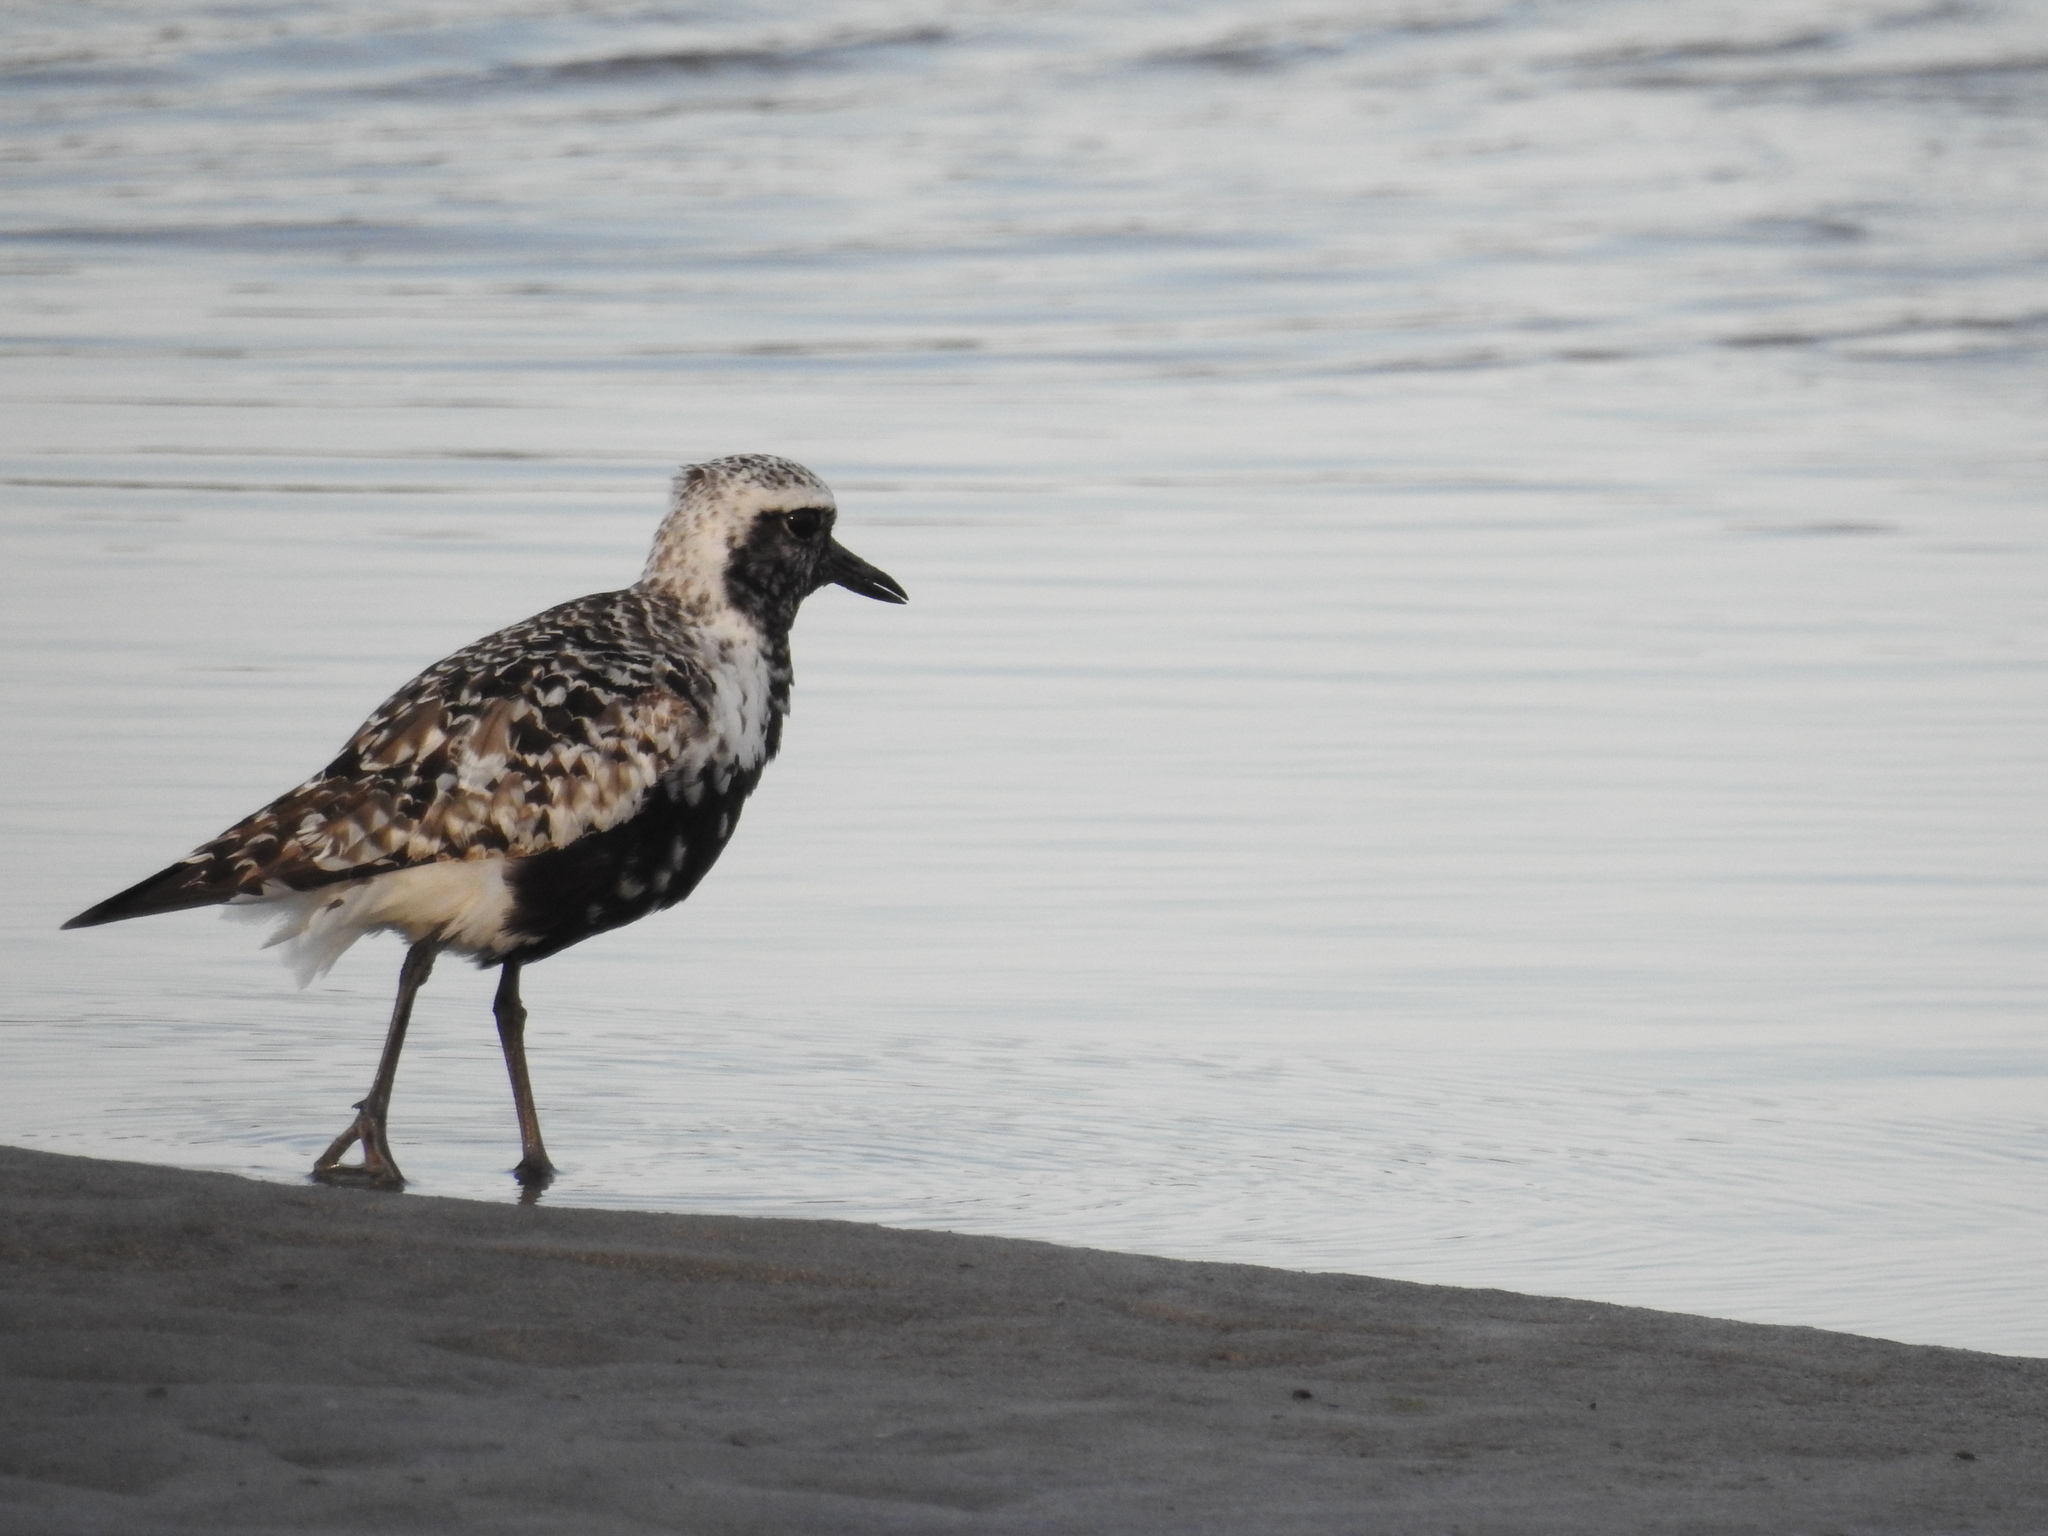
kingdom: Animalia
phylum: Chordata
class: Aves
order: Charadriiformes
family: Charadriidae
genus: Pluvialis
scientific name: Pluvialis squatarola
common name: Grey plover
